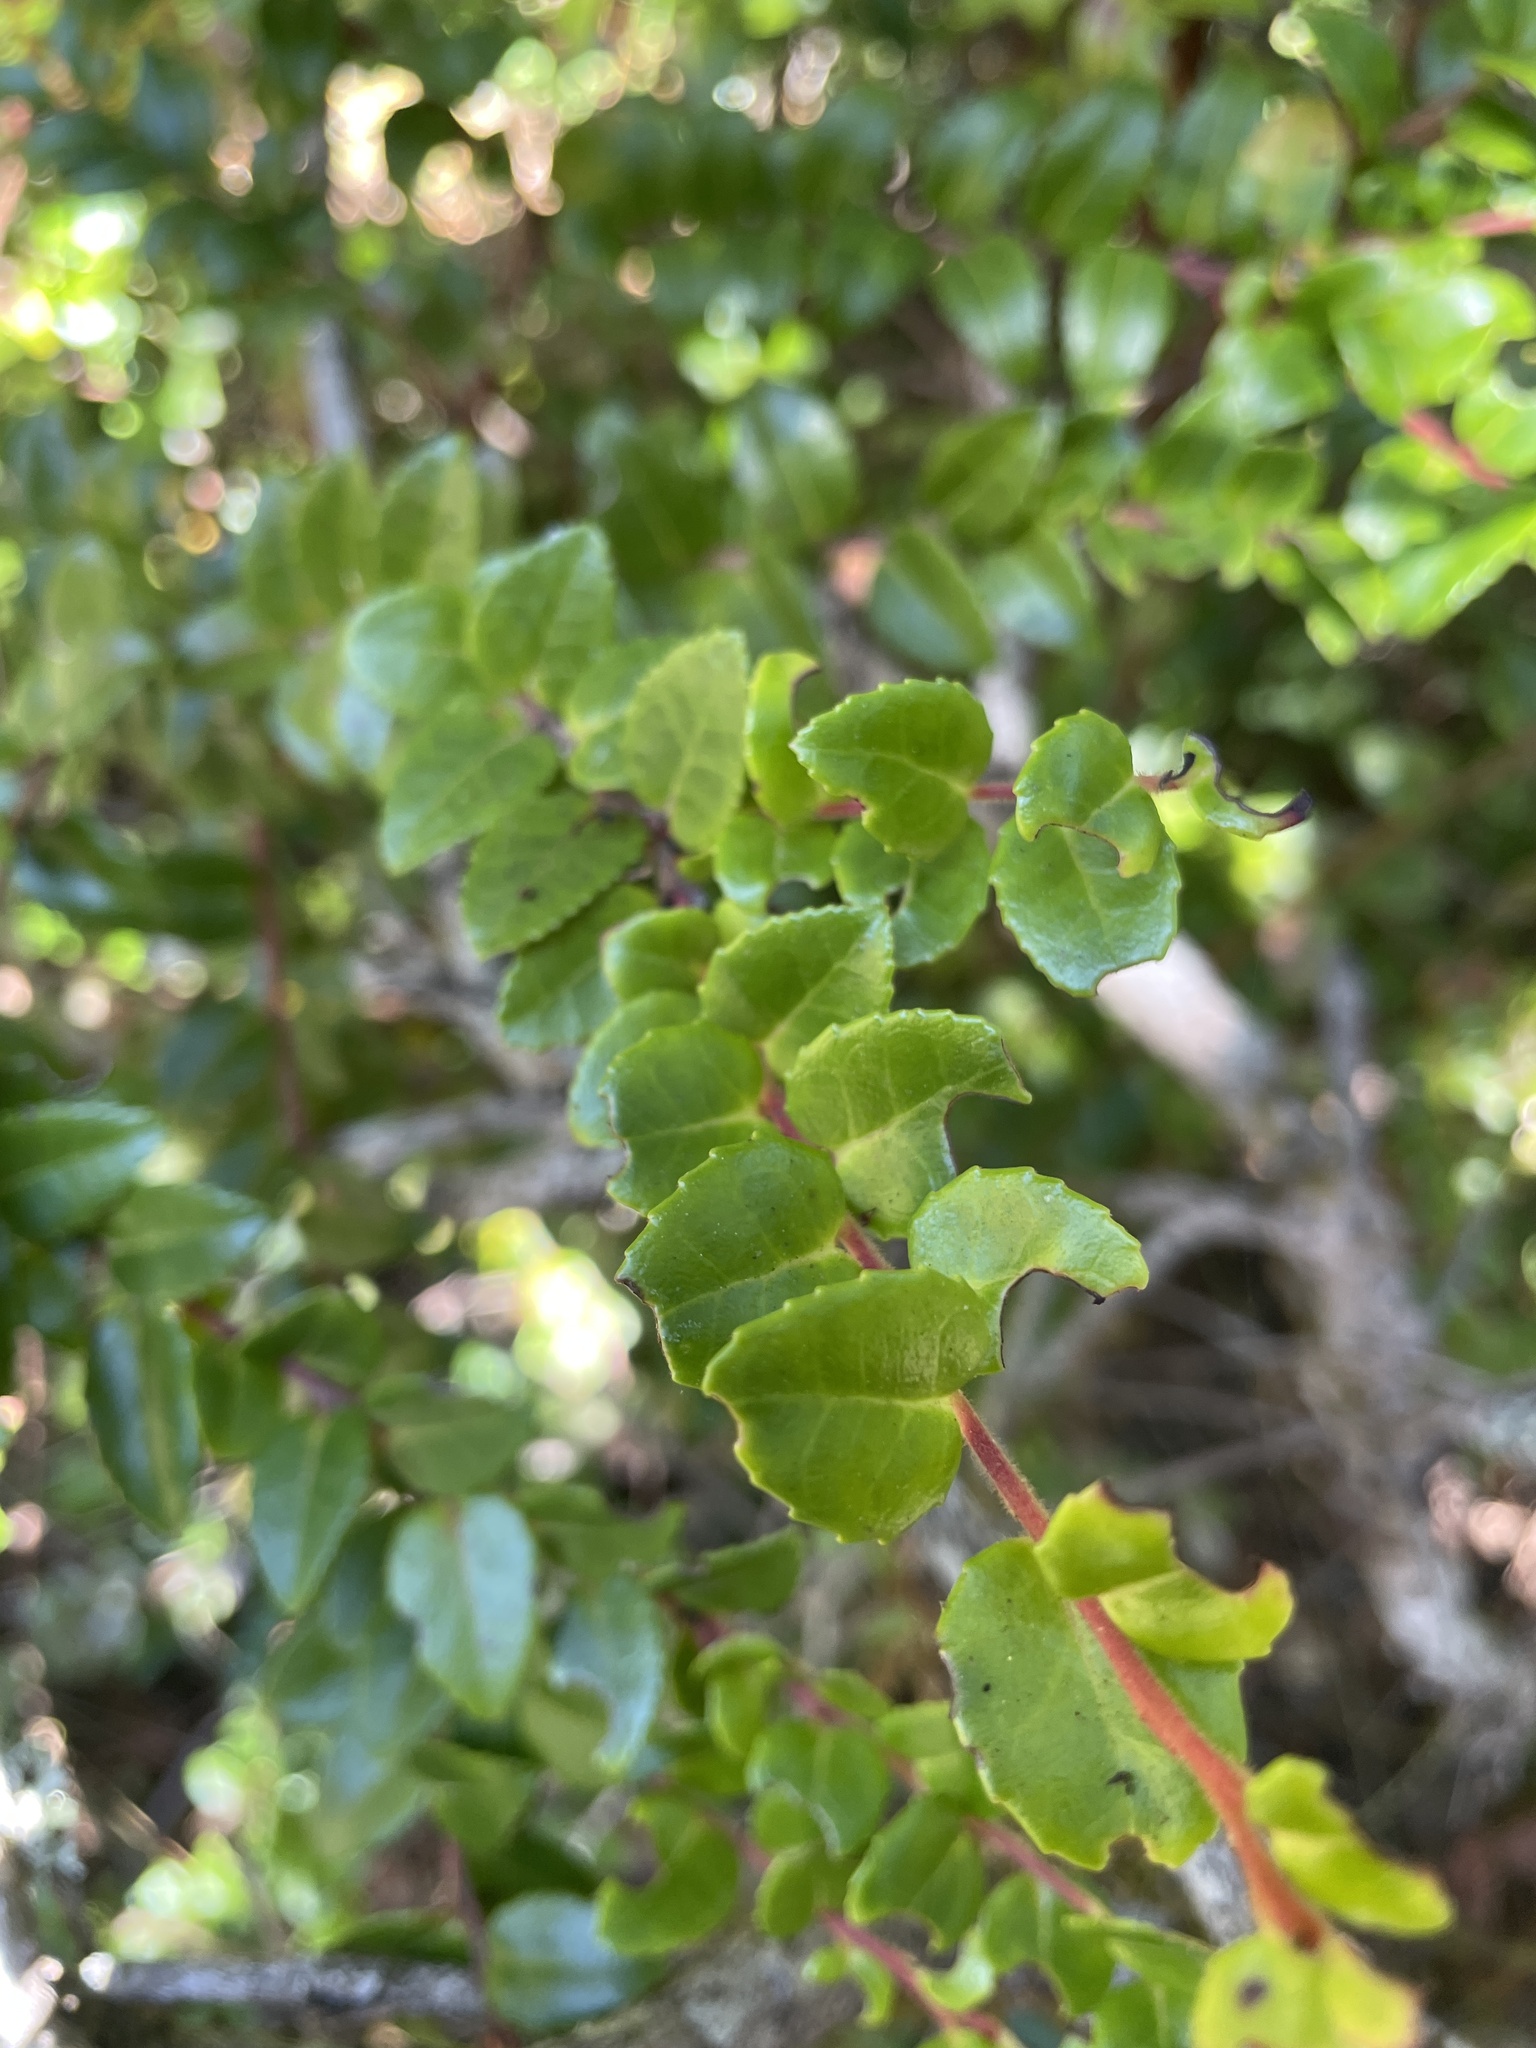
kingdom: Plantae
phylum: Tracheophyta
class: Magnoliopsida
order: Ericales
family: Ericaceae
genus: Vaccinium
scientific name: Vaccinium ovatum
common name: California-huckleberry
